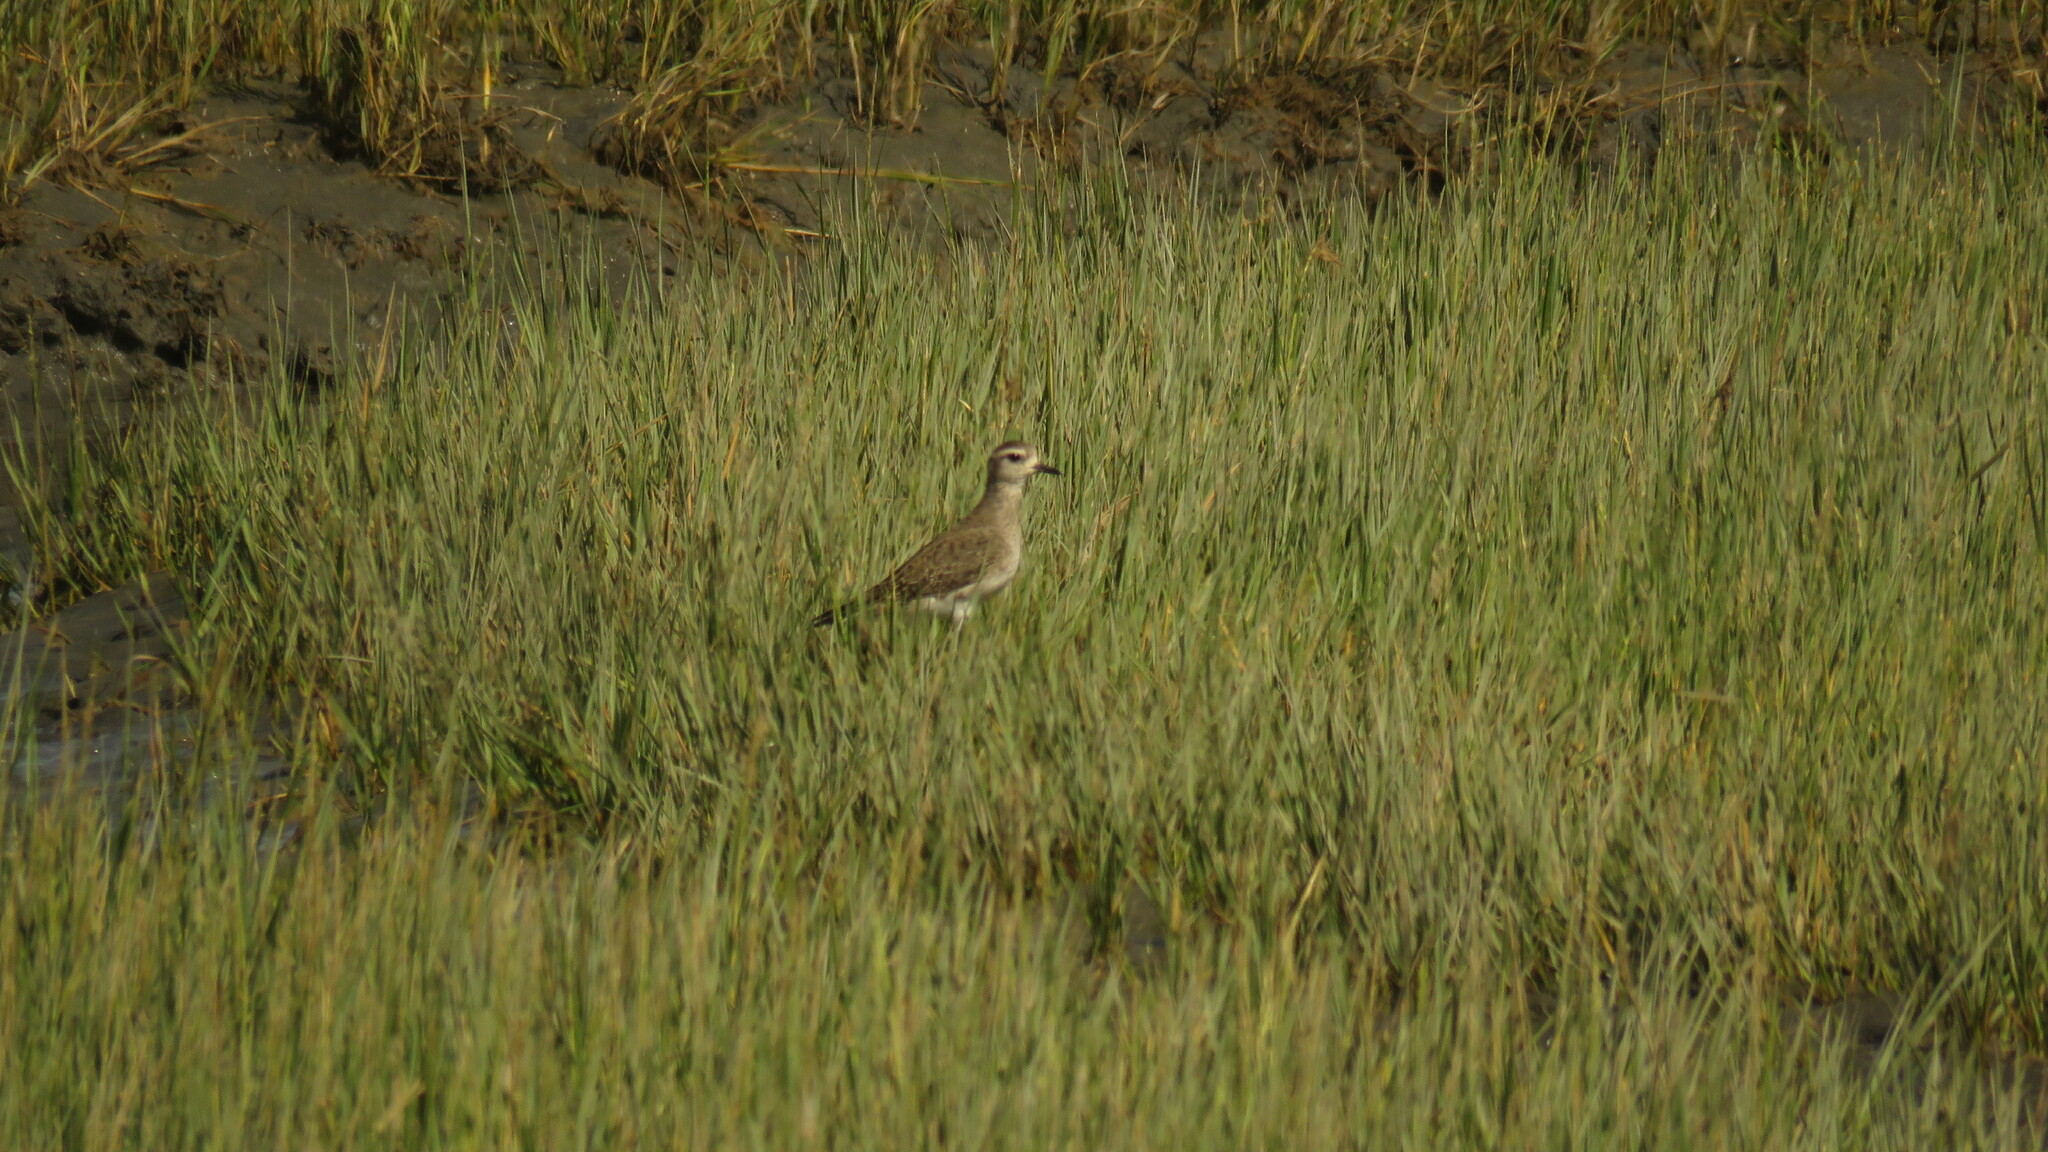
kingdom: Animalia
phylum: Chordata
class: Aves
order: Charadriiformes
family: Charadriidae
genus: Pluvialis
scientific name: Pluvialis dominica
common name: American golden plover
